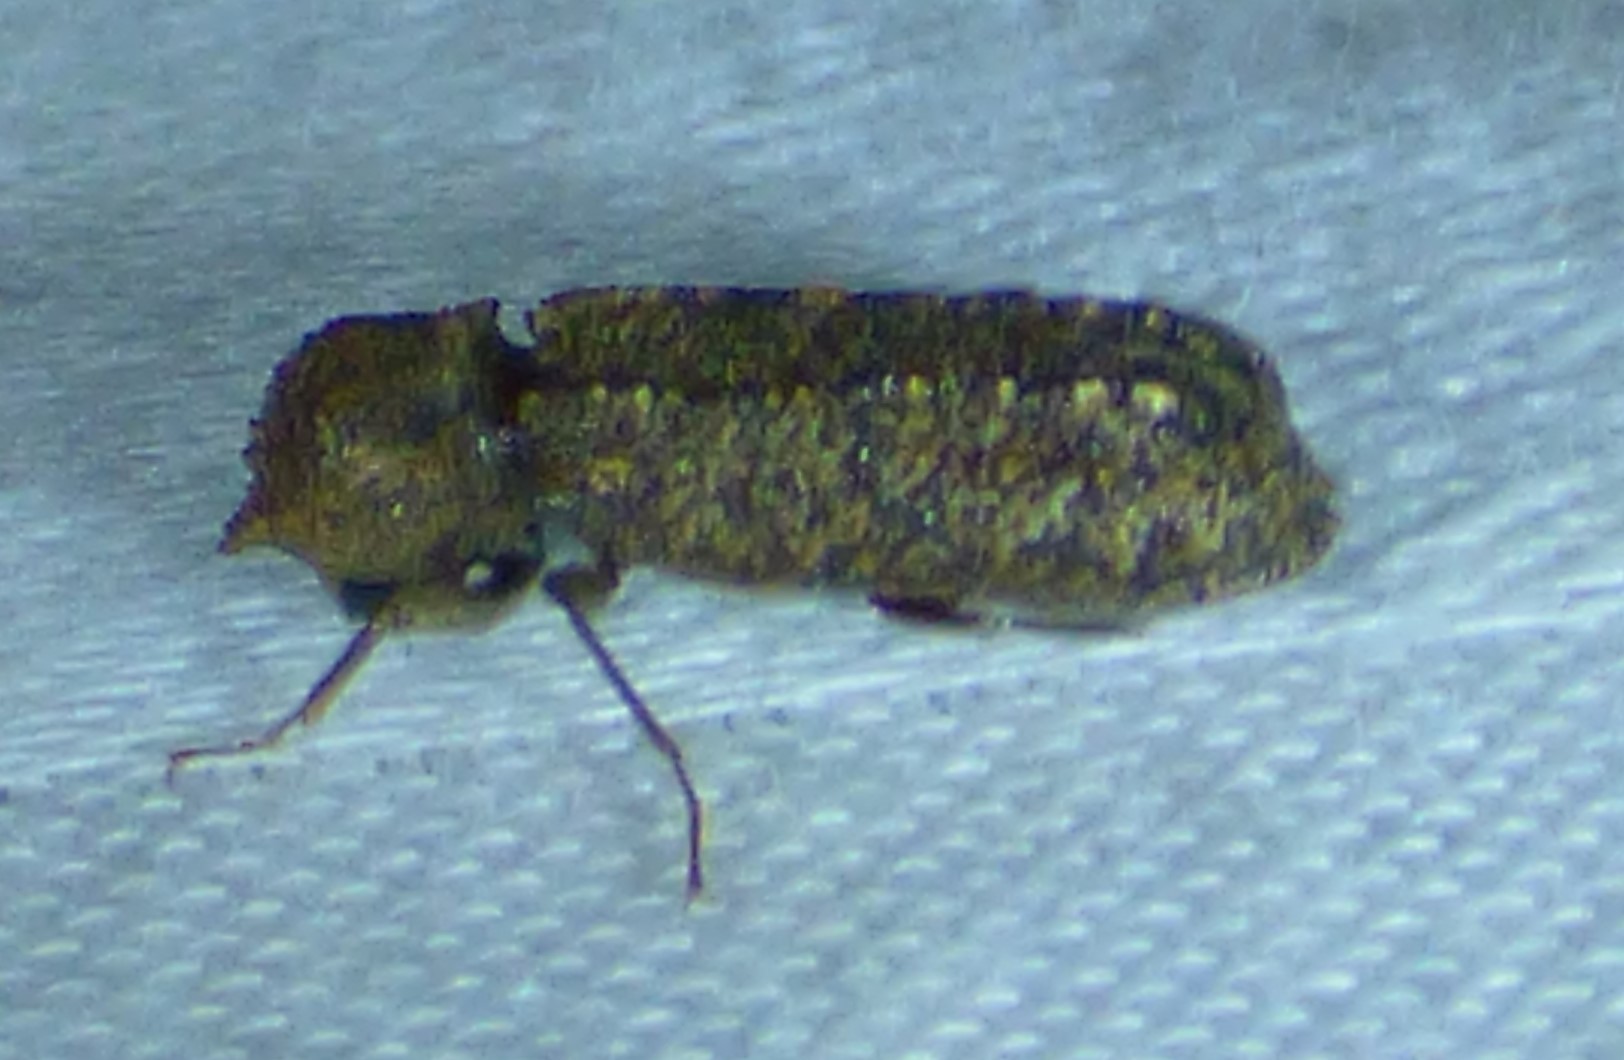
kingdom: Animalia
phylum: Arthropoda
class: Insecta
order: Coleoptera
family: Bostrichidae
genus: Lichenophanes
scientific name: Lichenophanes bicornis
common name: Two-horned powder-post beetle
